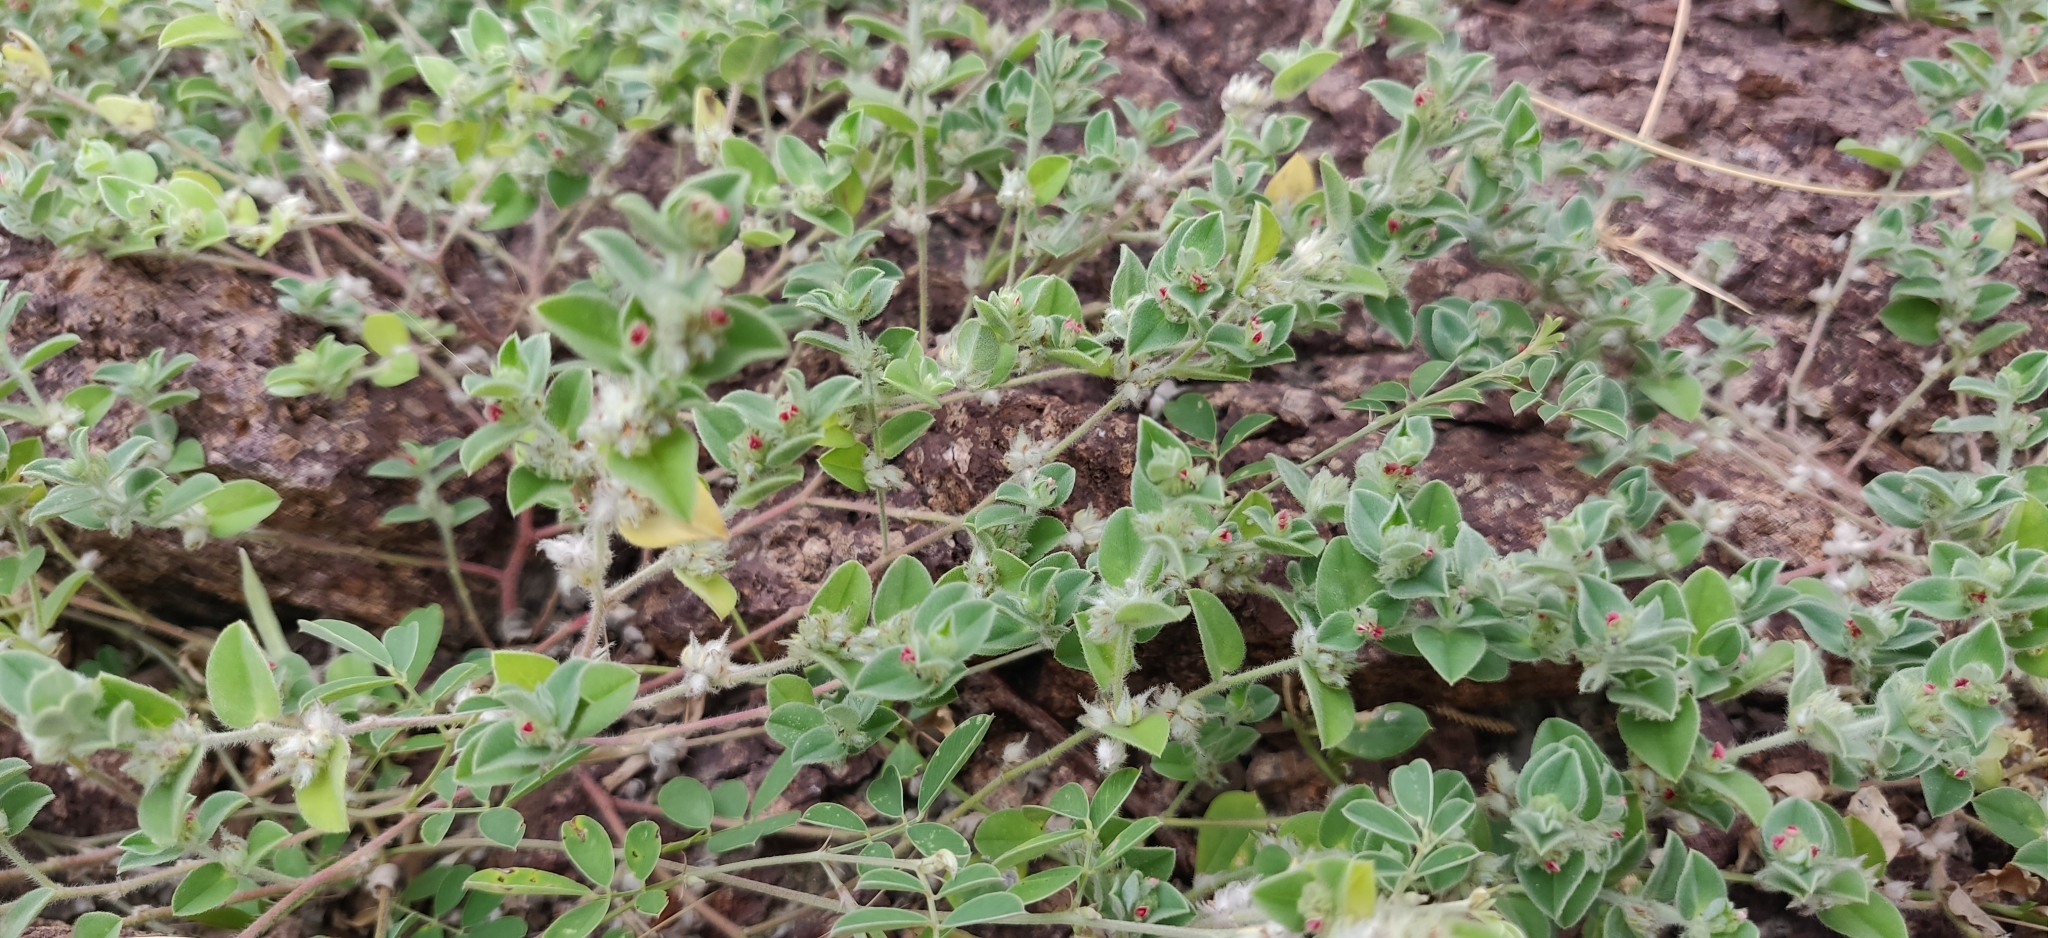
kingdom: Plantae
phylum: Tracheophyta
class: Magnoliopsida
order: Fabales
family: Fabaceae
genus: Indigofera
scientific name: Indigofera cordifolia
